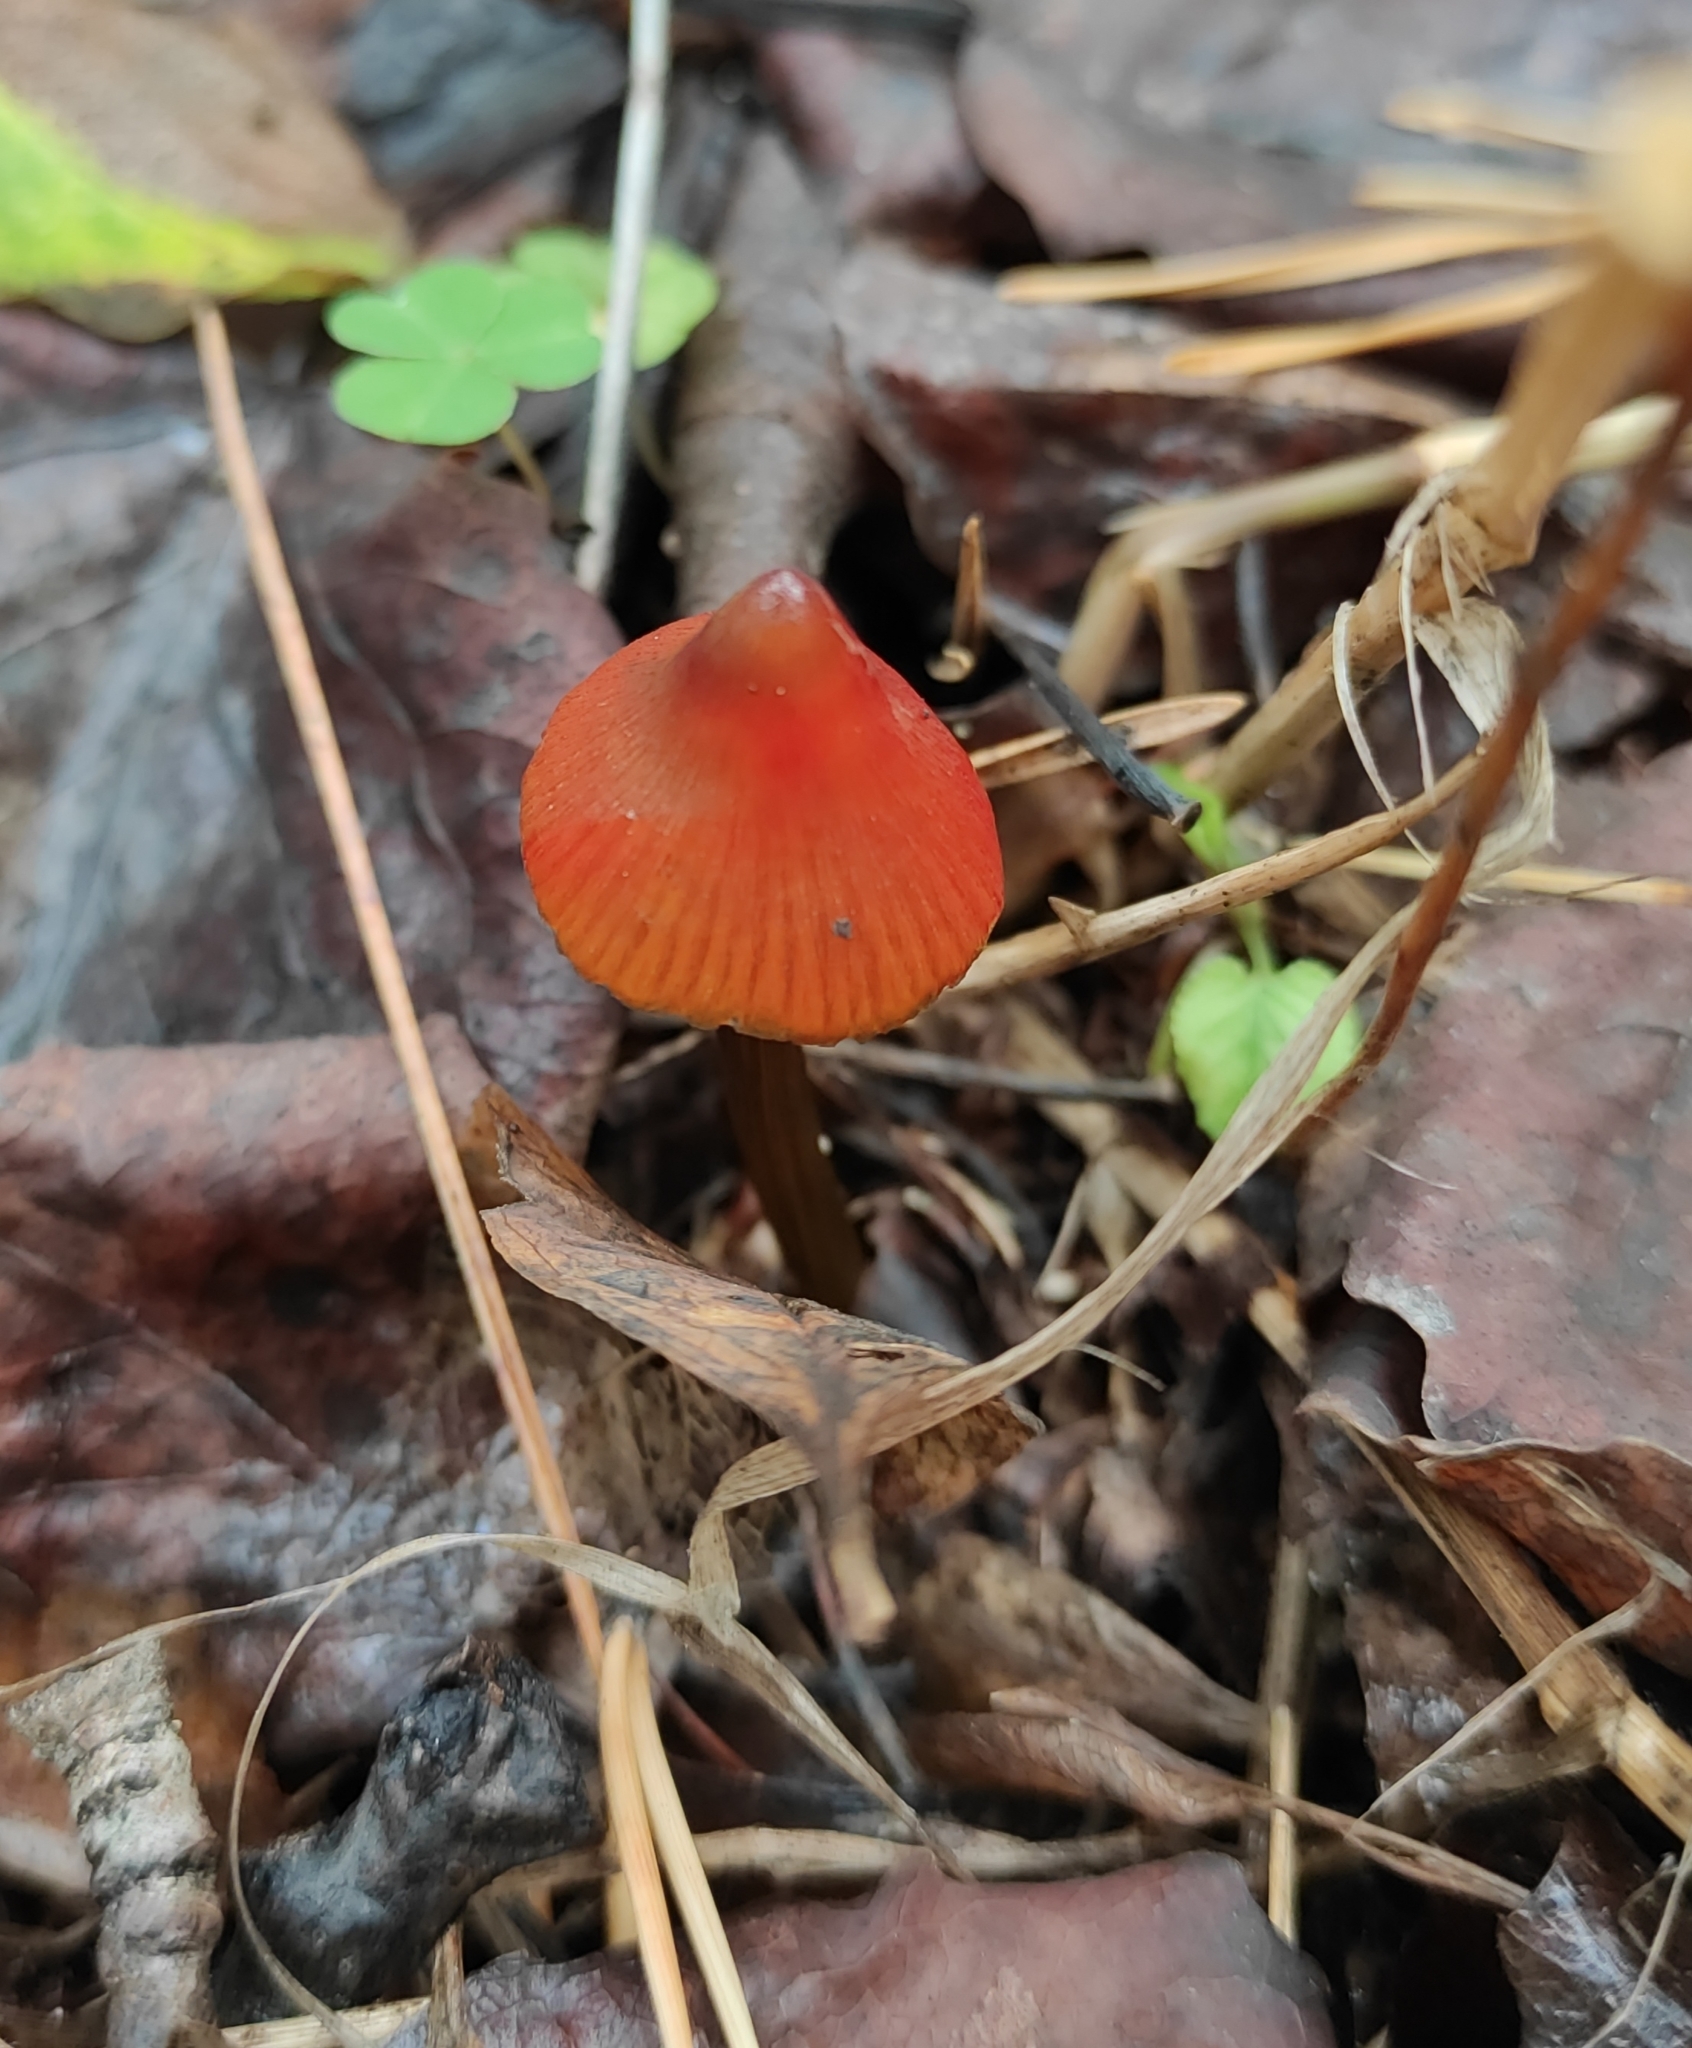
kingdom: Fungi
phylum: Basidiomycota
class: Agaricomycetes
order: Agaricales
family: Hygrophoraceae
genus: Hygrocybe
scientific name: Hygrocybe conica
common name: Blackening wax-cap
